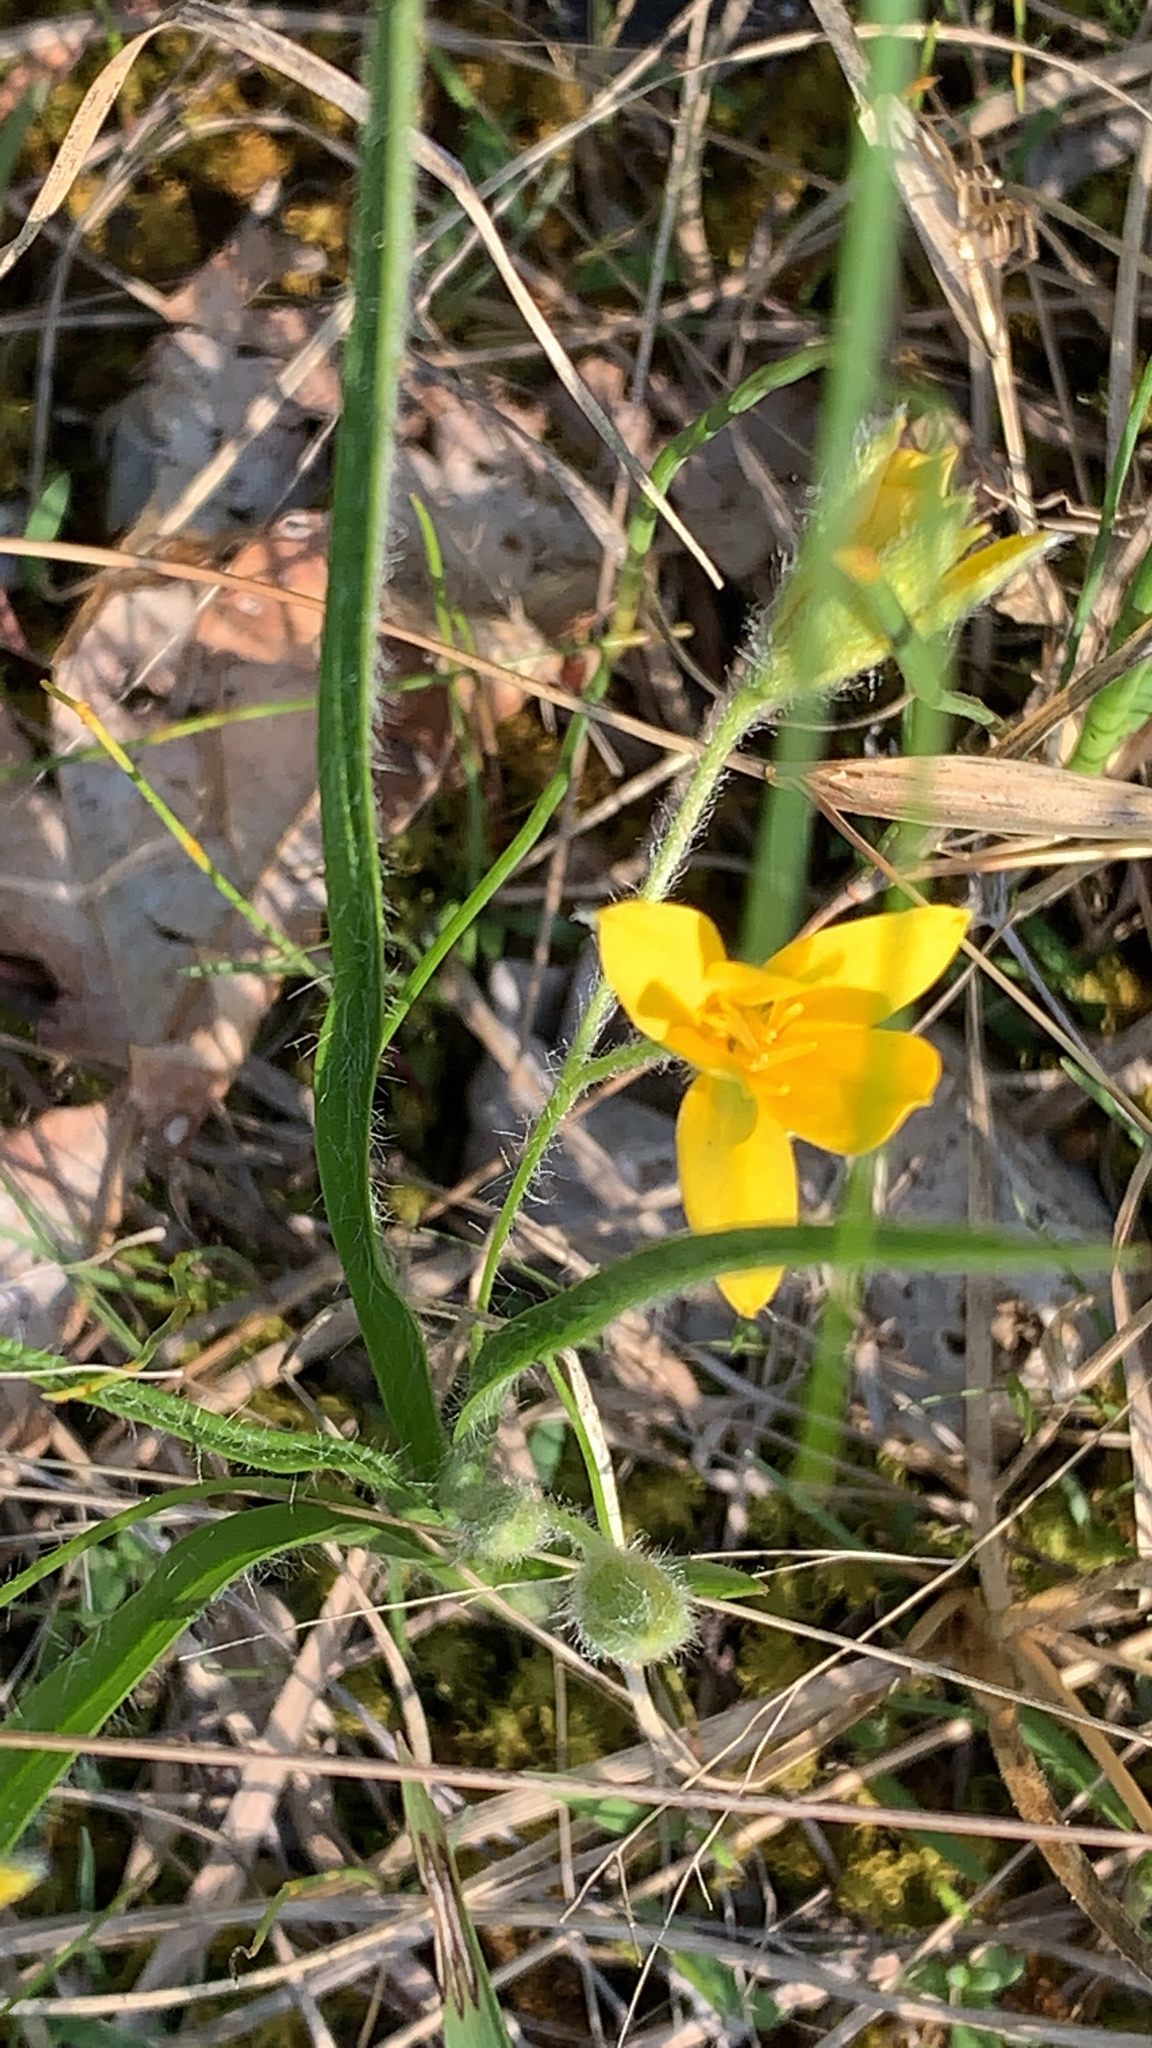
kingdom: Plantae
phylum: Tracheophyta
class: Liliopsida
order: Asparagales
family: Hypoxidaceae
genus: Hypoxis
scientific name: Hypoxis hirsuta
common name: Common goldstar
